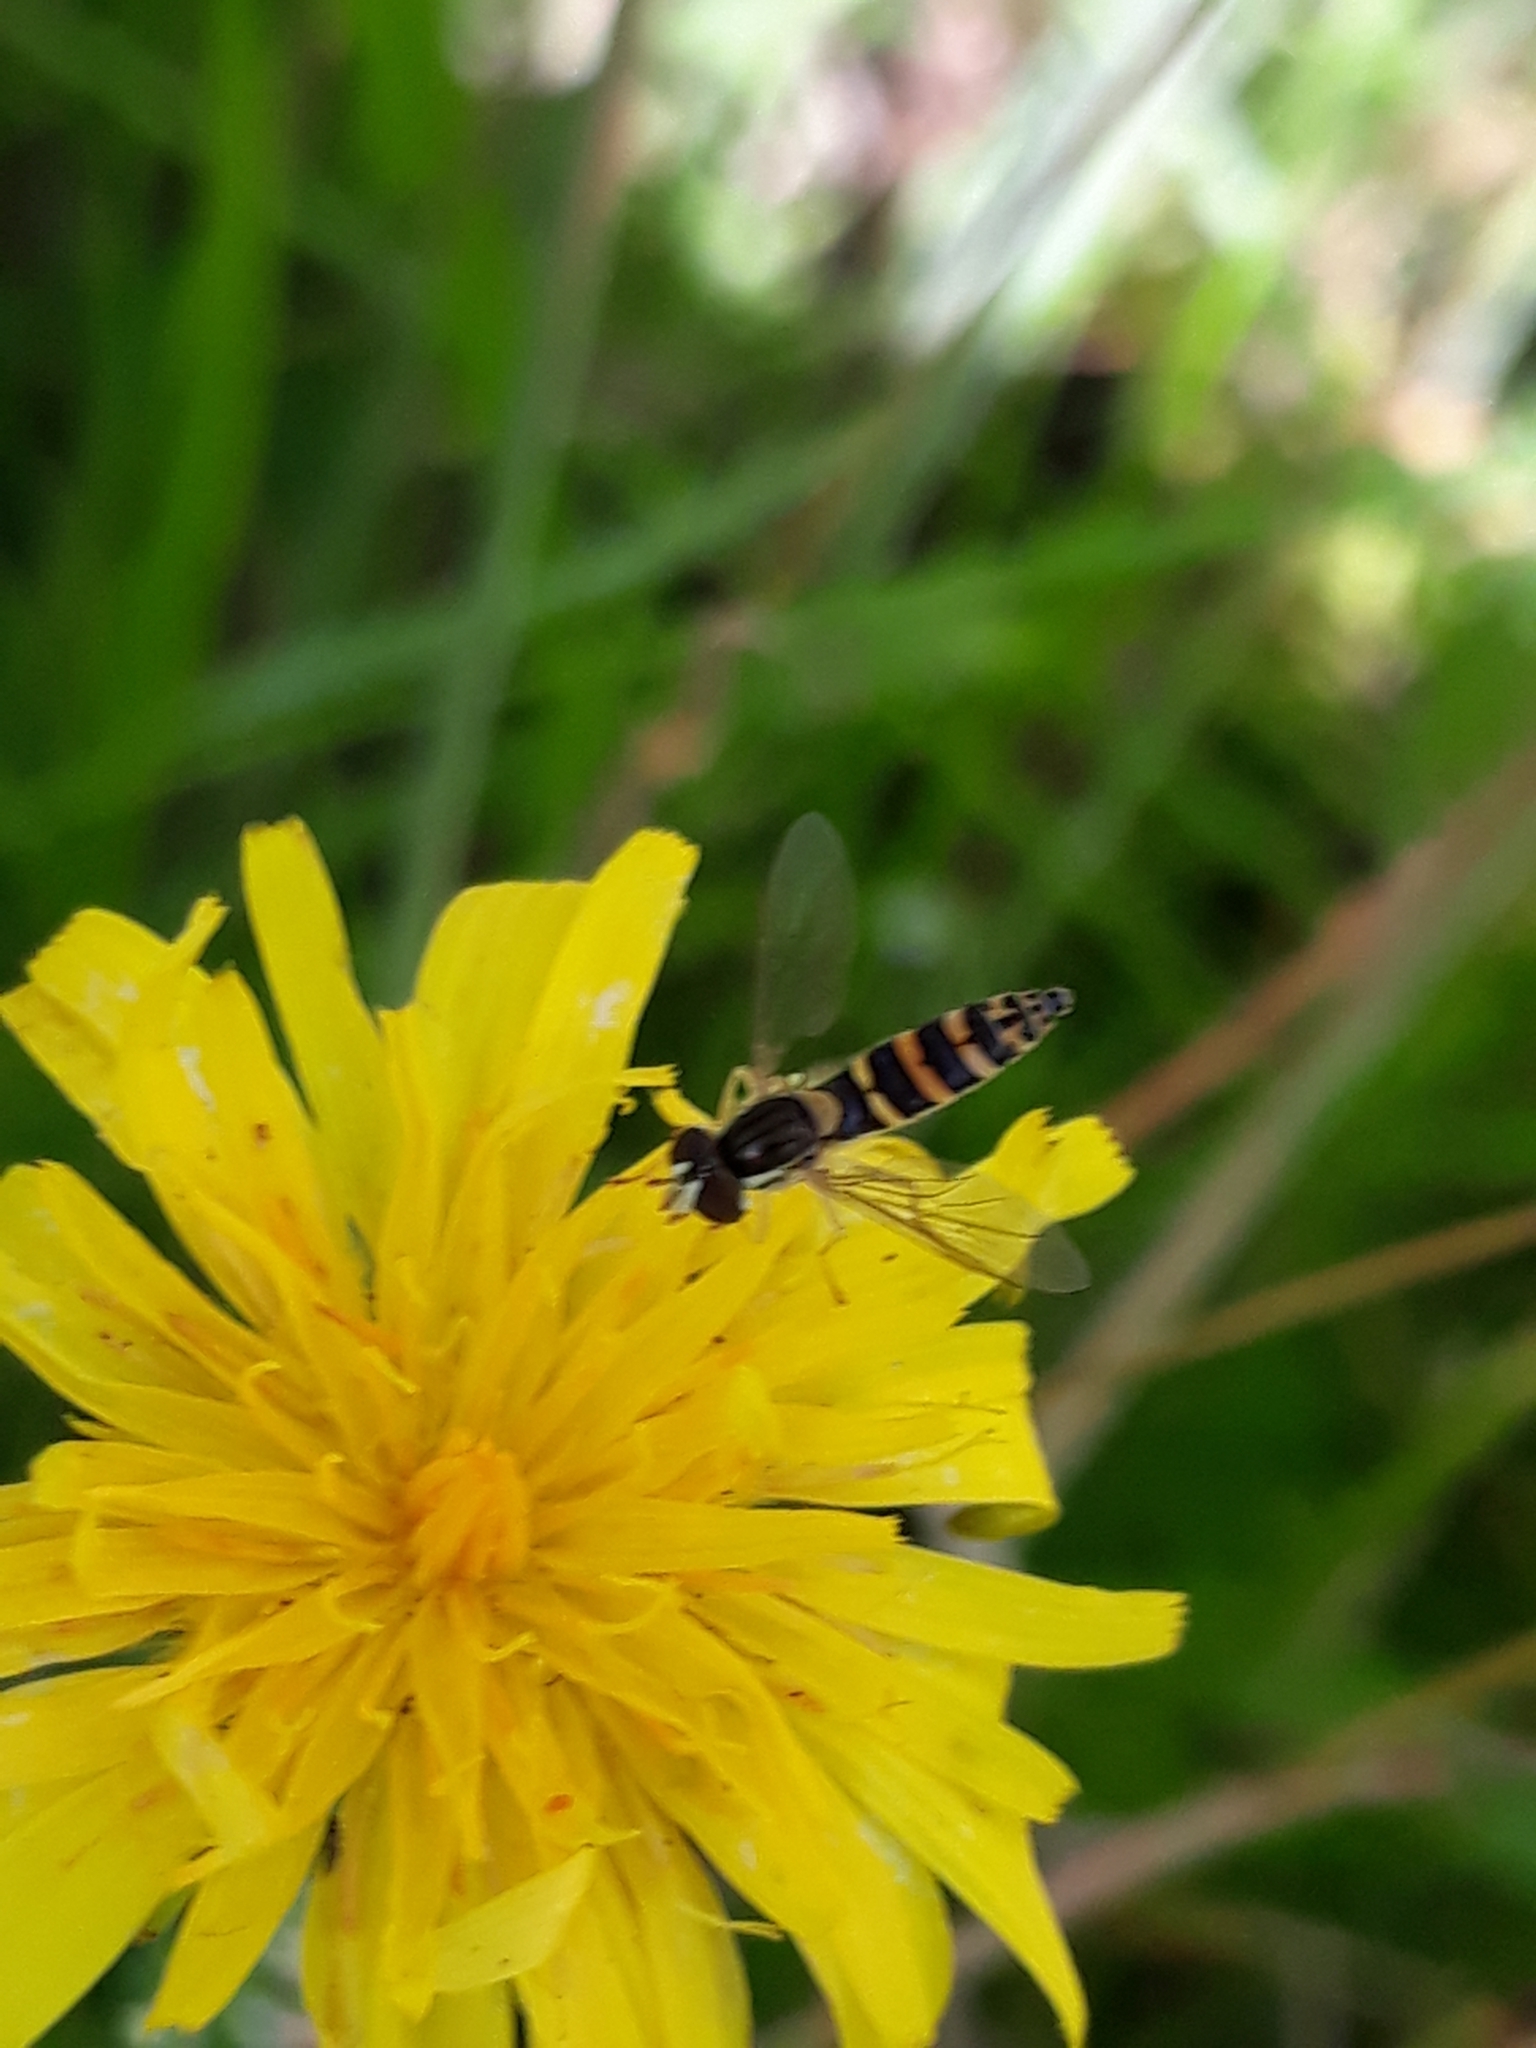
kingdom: Animalia
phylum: Arthropoda
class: Insecta
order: Diptera
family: Syrphidae
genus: Sphaerophoria
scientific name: Sphaerophoria
